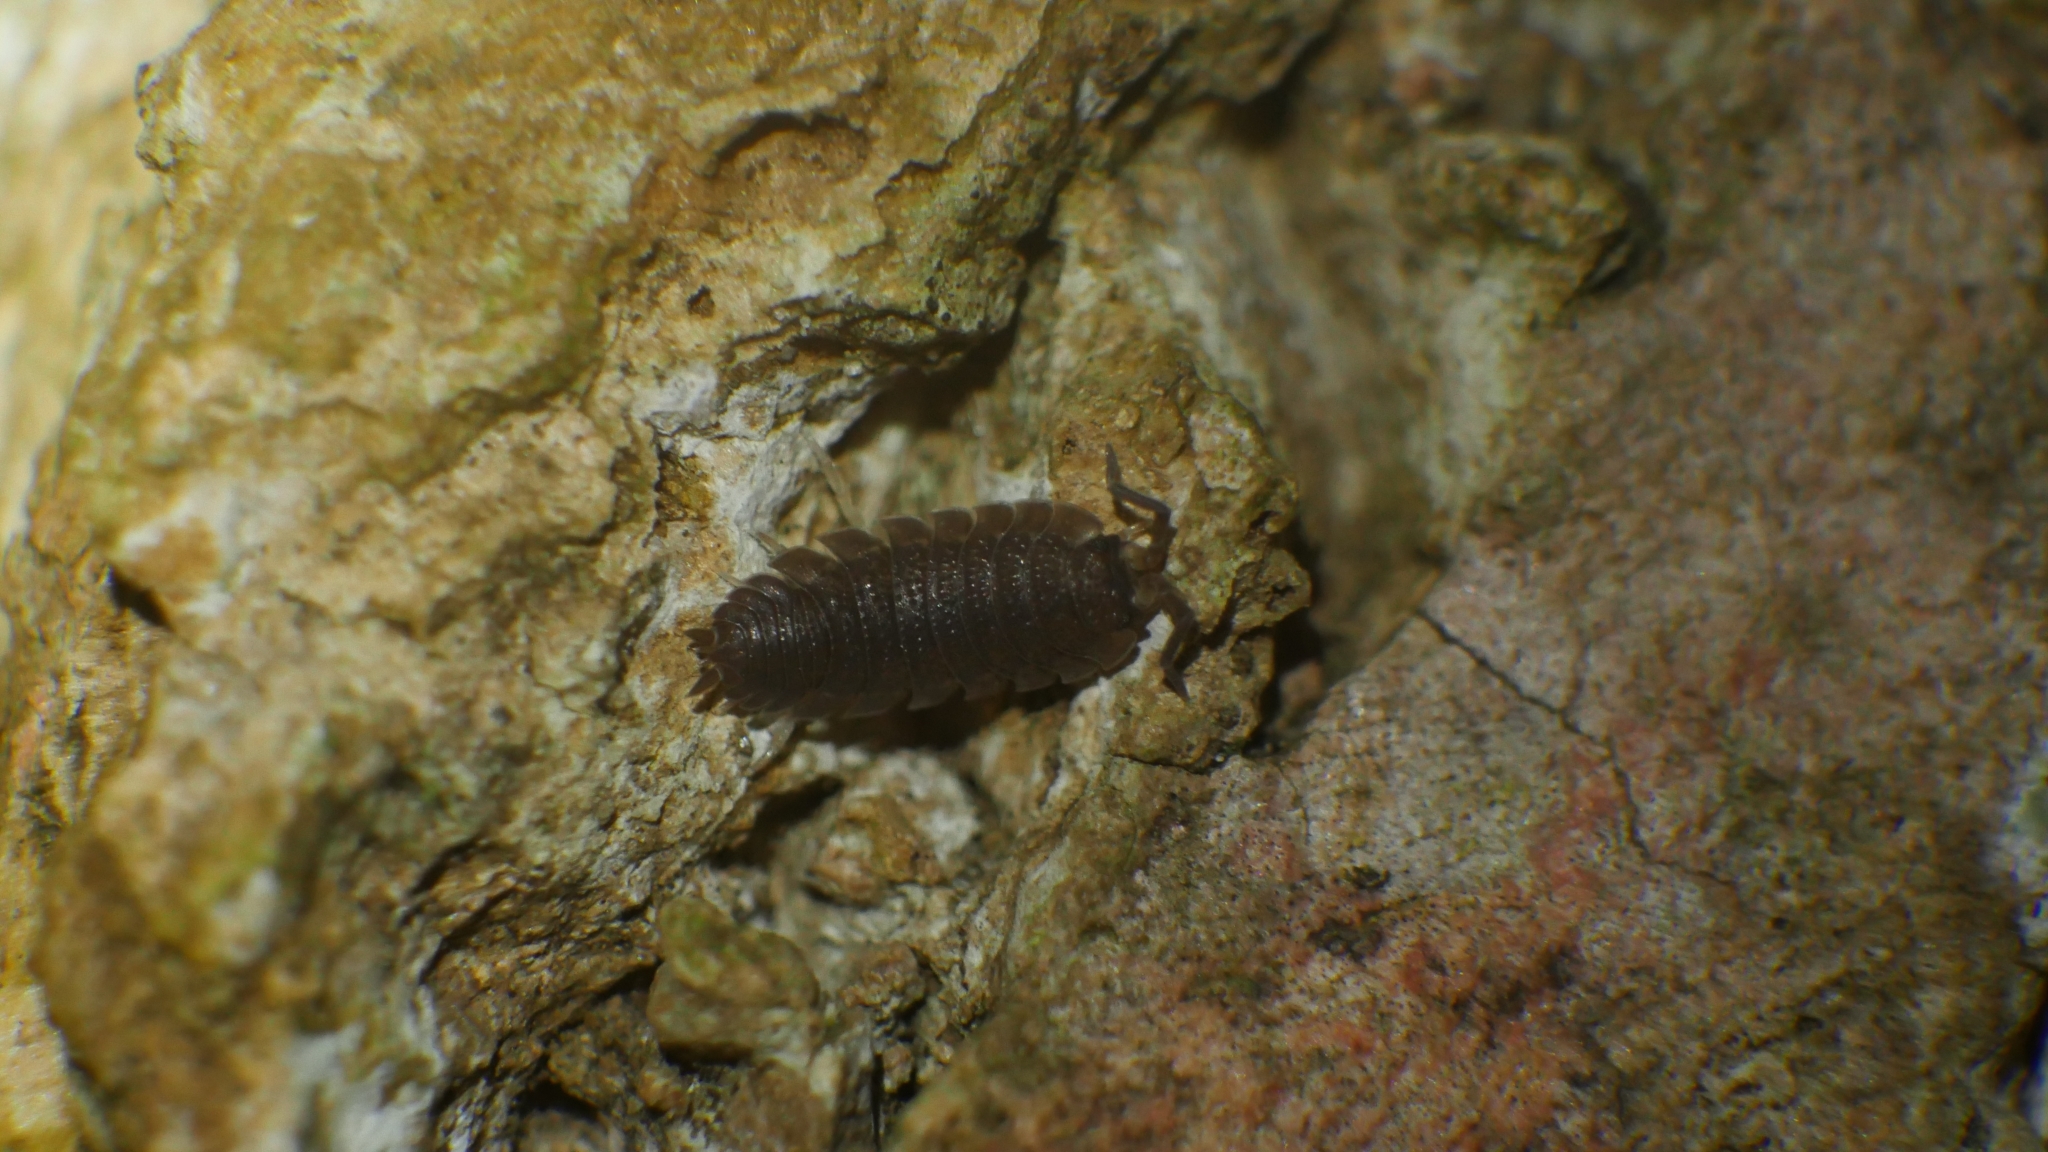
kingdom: Animalia
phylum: Arthropoda
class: Malacostraca
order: Isopoda
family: Porcellionidae
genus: Porcellio
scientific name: Porcellio scaber
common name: Common rough woodlouse
